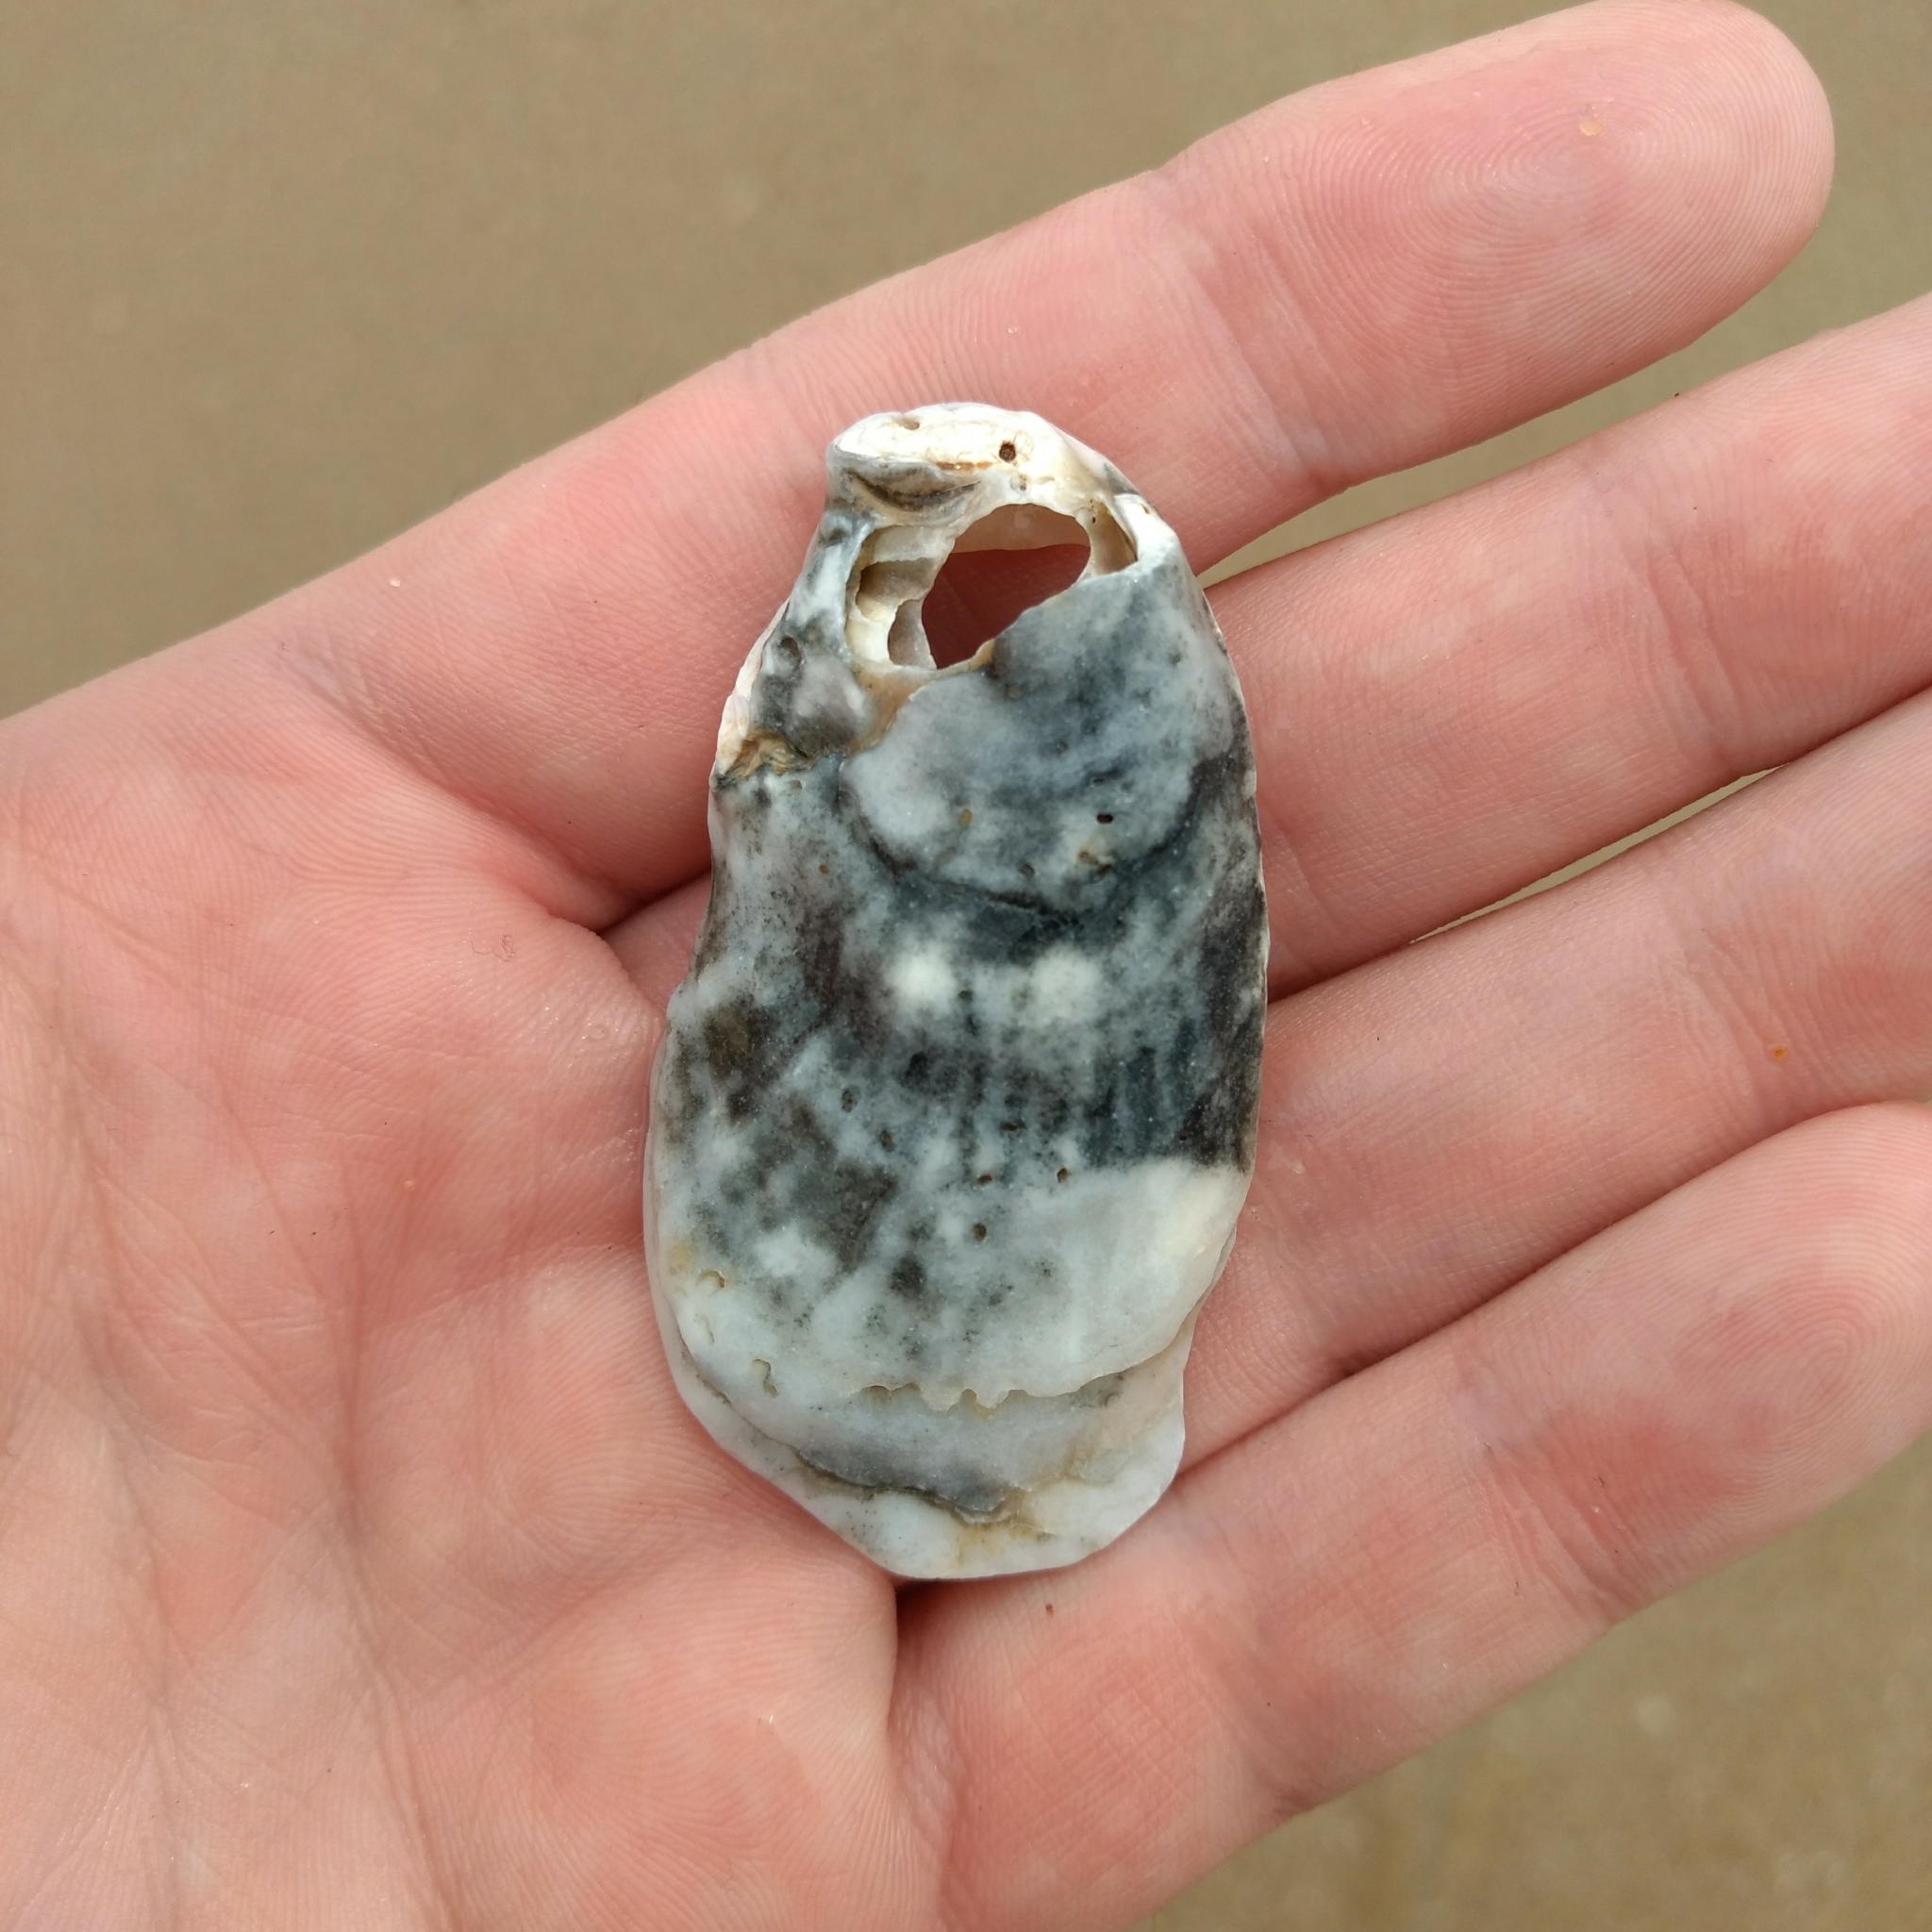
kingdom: Animalia
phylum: Mollusca
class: Bivalvia
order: Ostreida
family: Ostreidae
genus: Crassostrea
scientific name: Crassostrea virginica
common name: American oyster
